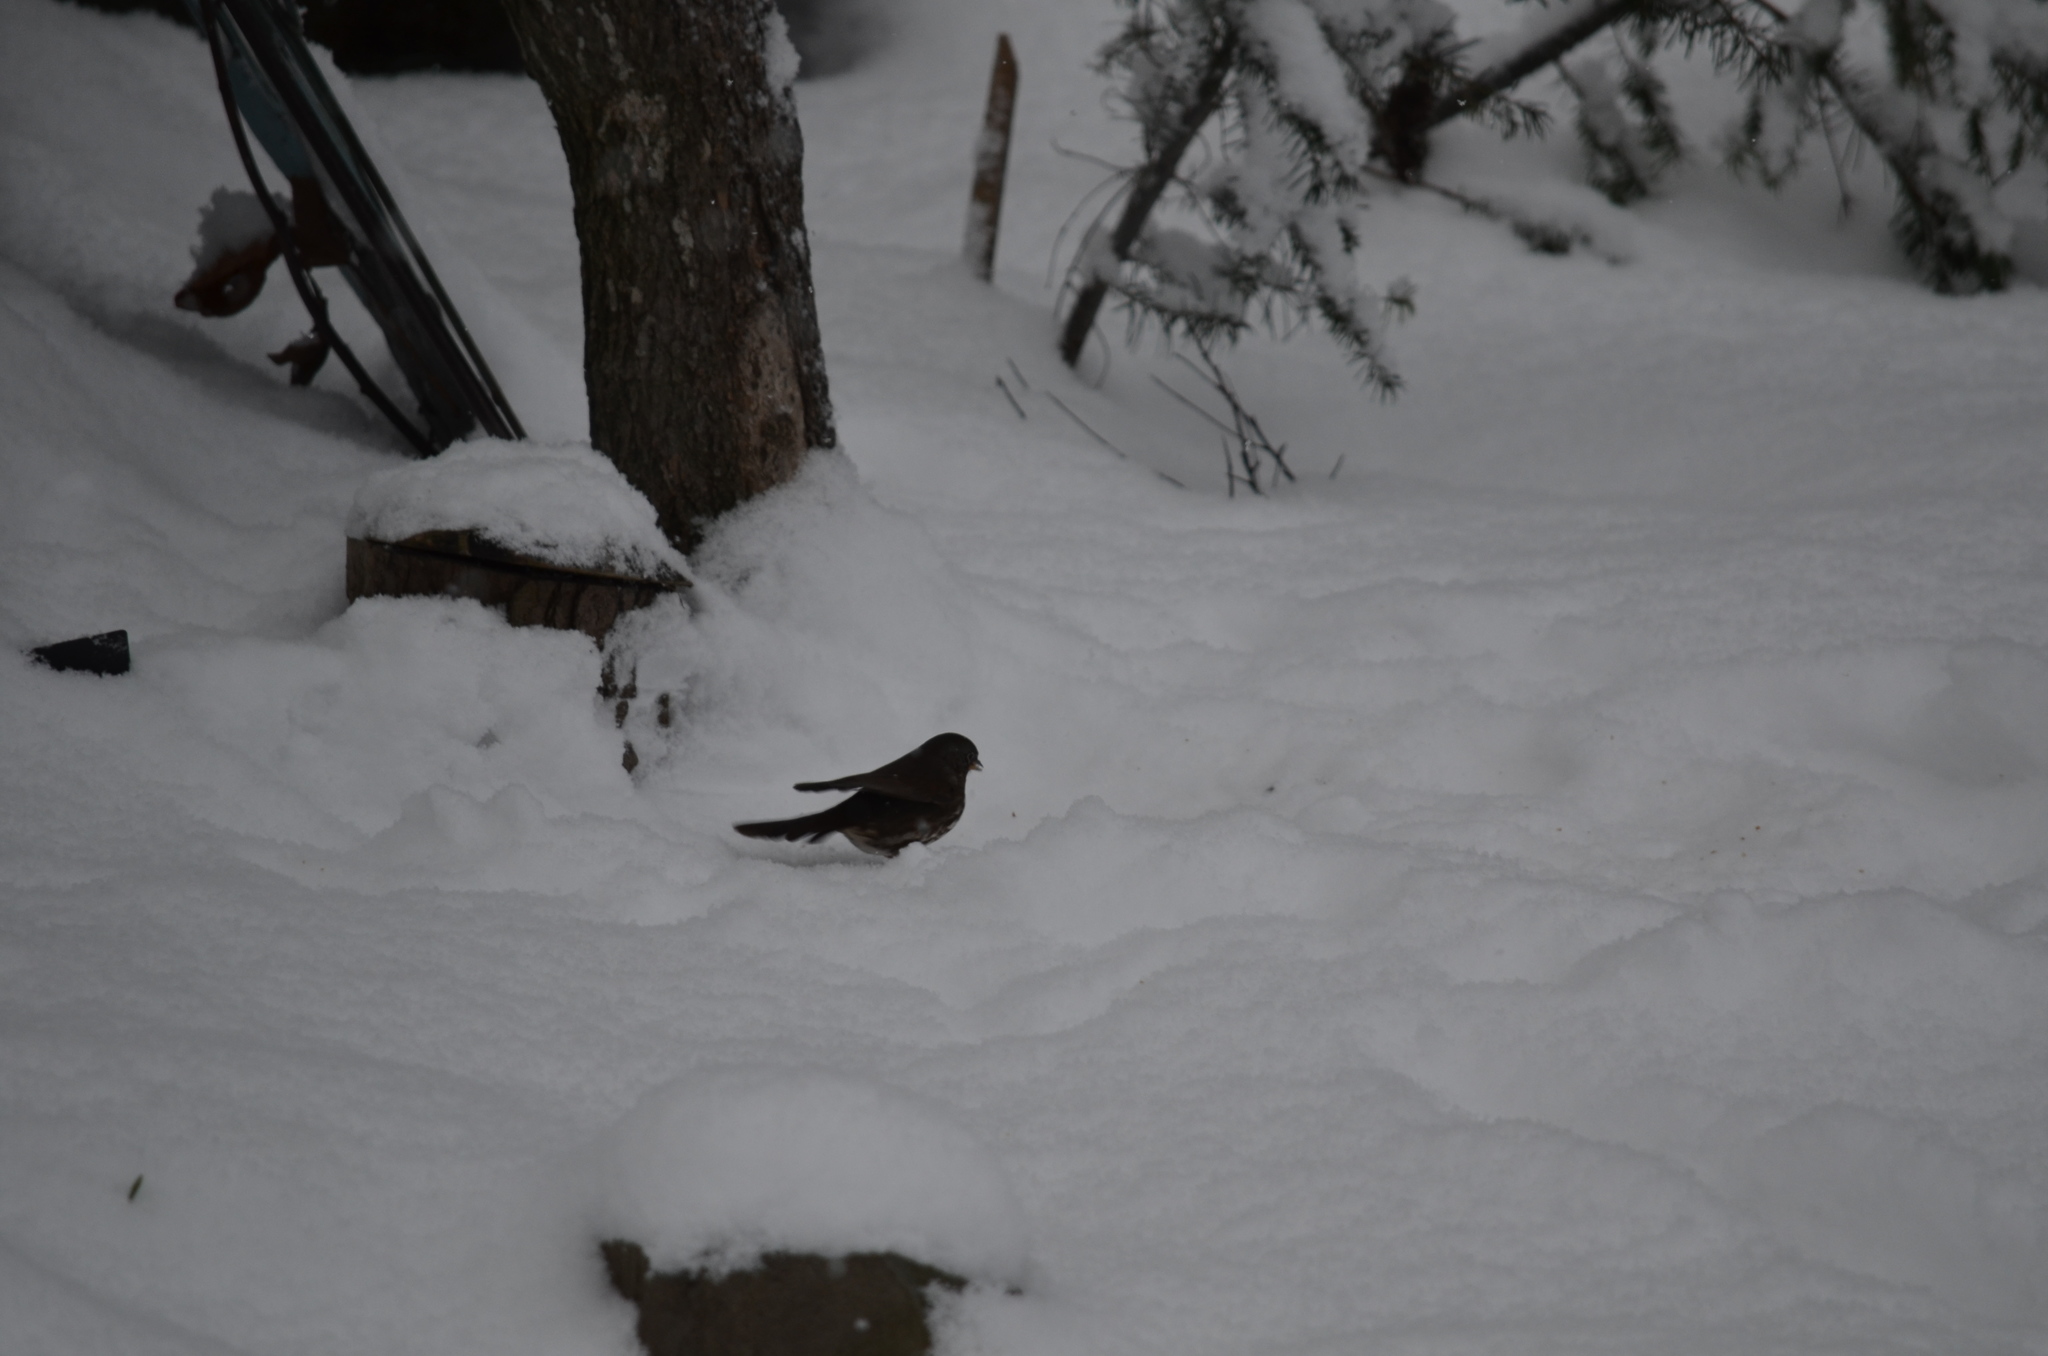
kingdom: Animalia
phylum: Chordata
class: Aves
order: Passeriformes
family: Passerellidae
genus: Passerella
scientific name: Passerella iliaca
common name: Fox sparrow
